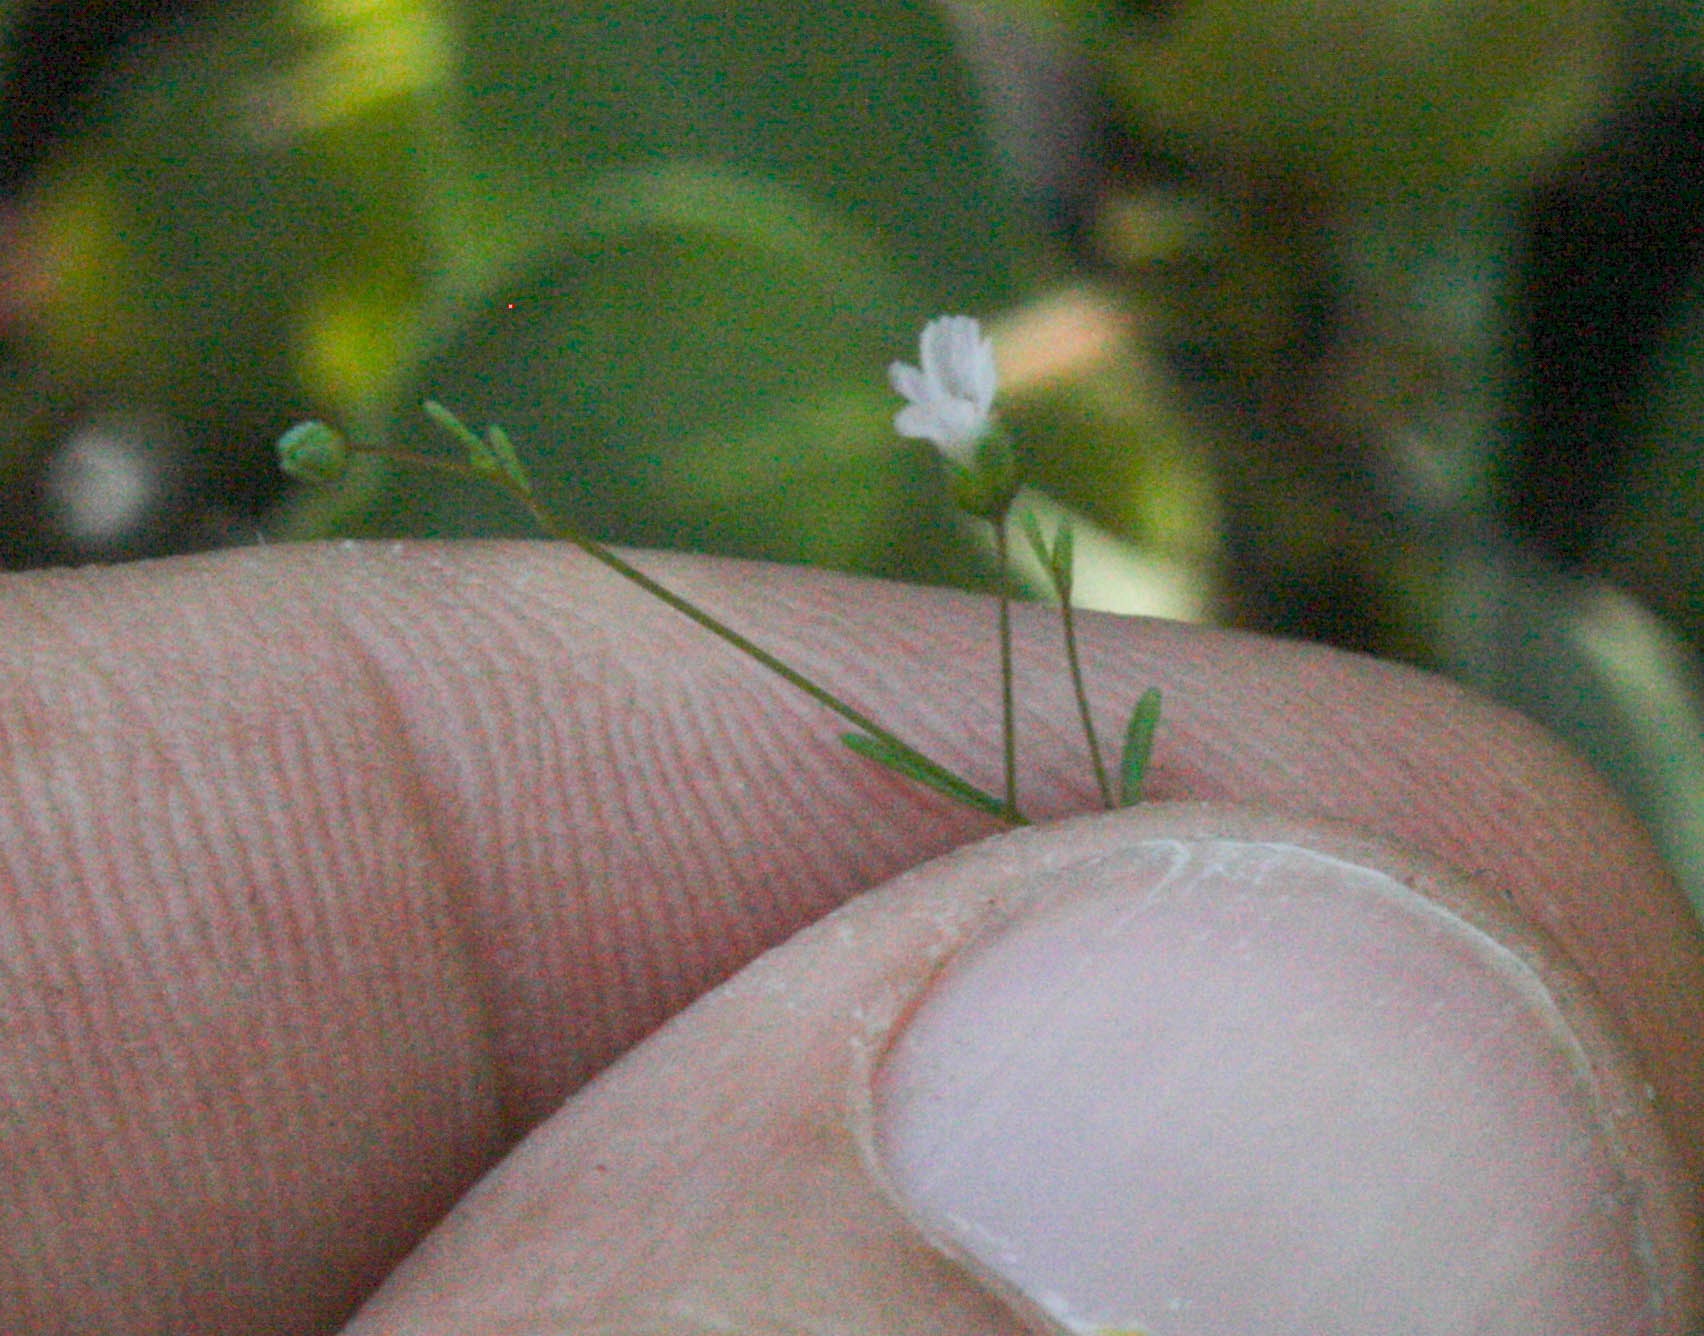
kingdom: Plantae
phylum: Tracheophyta
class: Magnoliopsida
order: Lamiales
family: Plantaginaceae
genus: Tonella
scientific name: Tonella tenella
